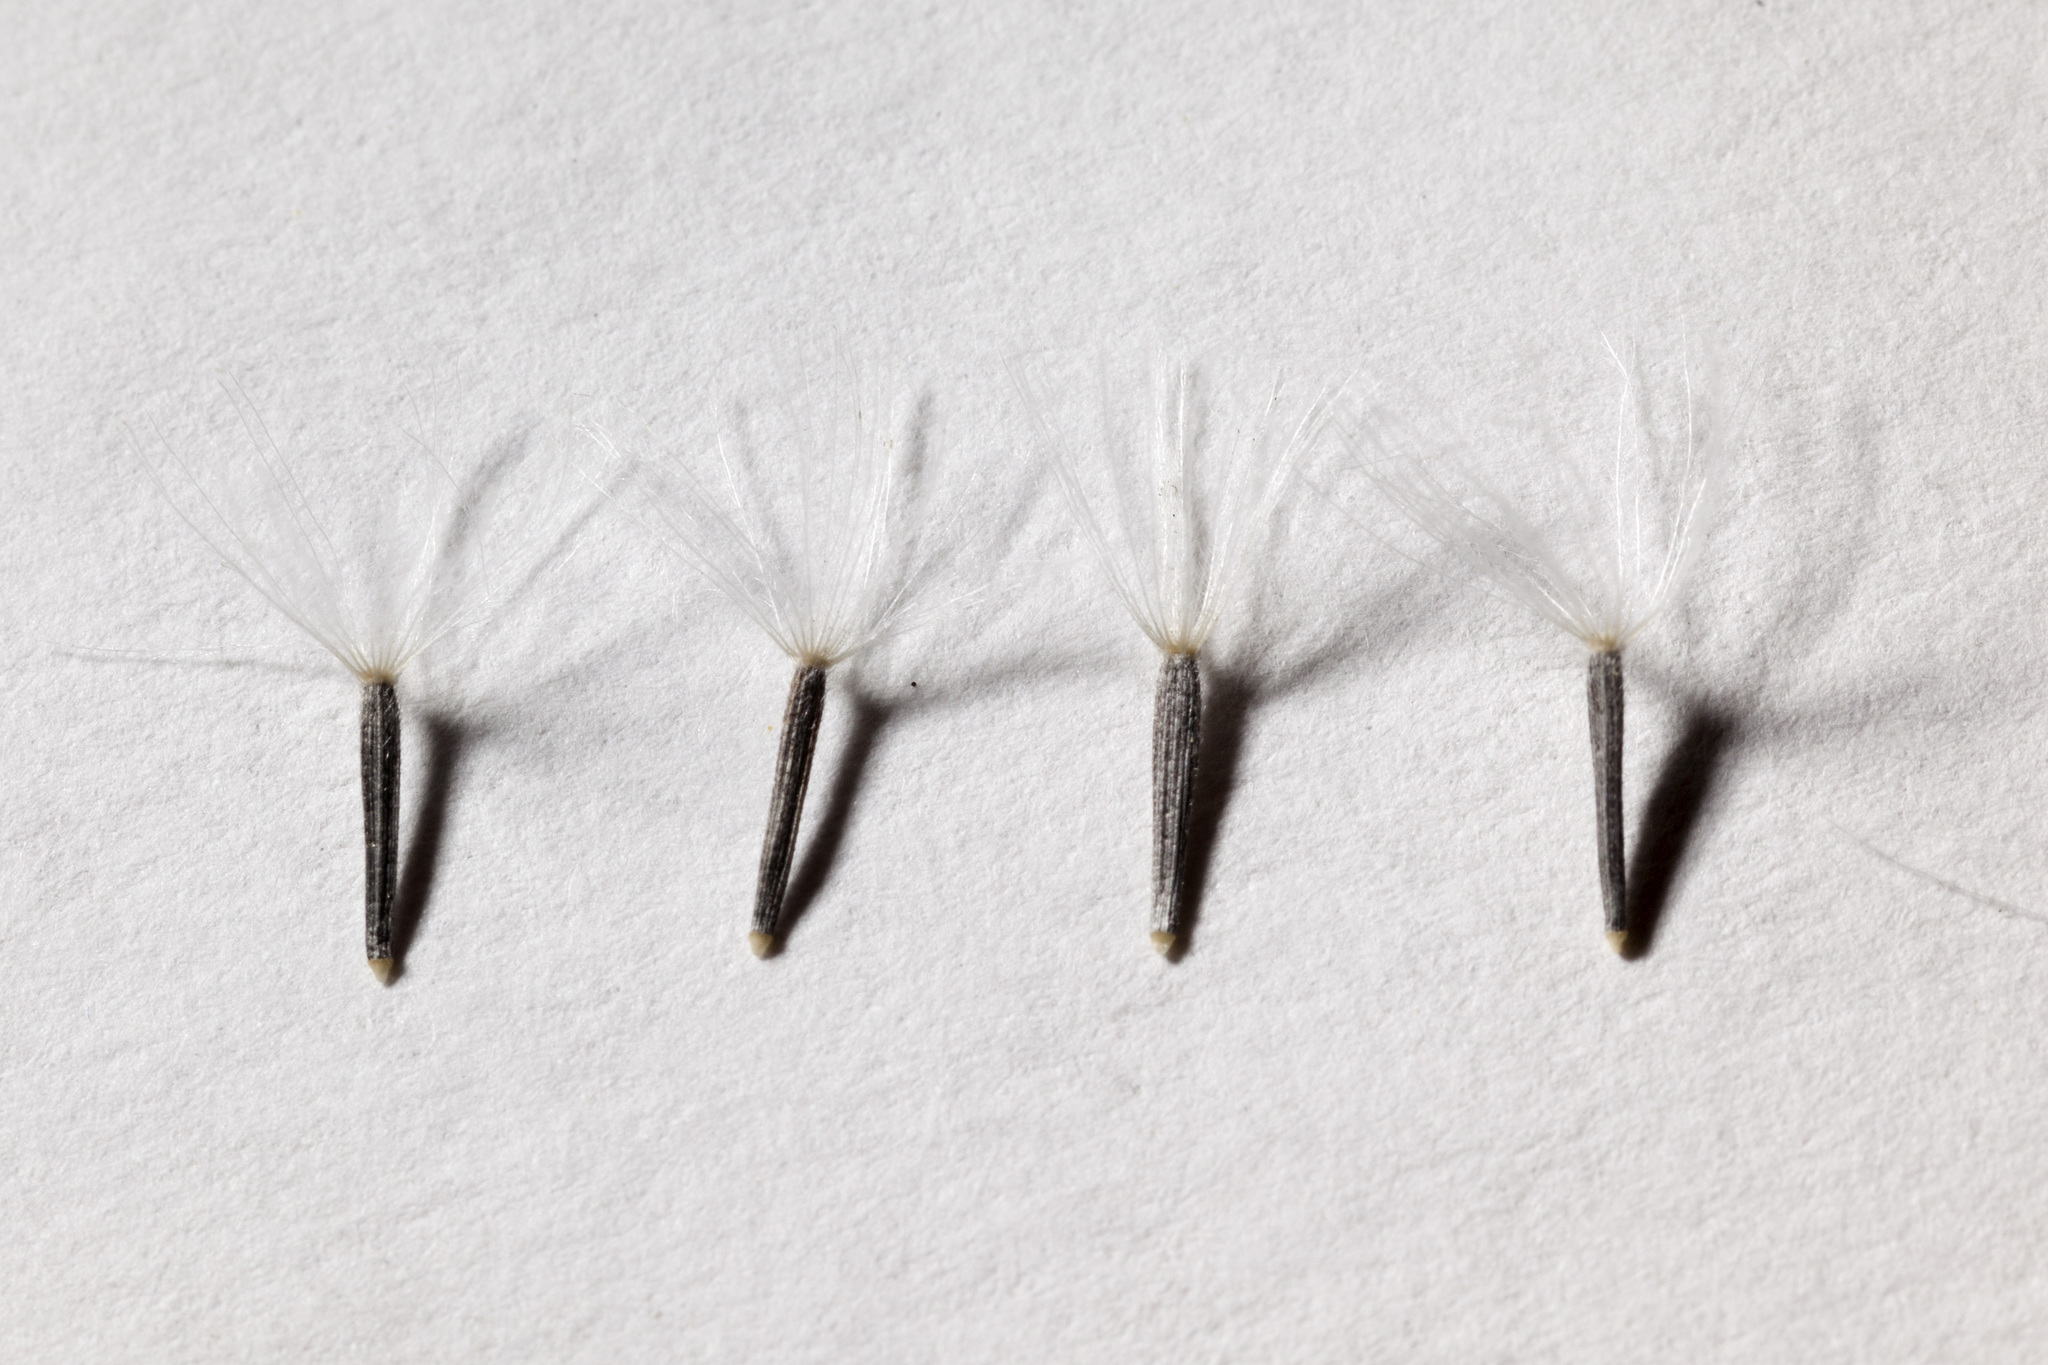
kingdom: Plantae
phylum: Tracheophyta
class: Magnoliopsida
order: Asterales
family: Asteraceae
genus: Brickellia
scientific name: Brickellia eupatorioides
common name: False boneset
